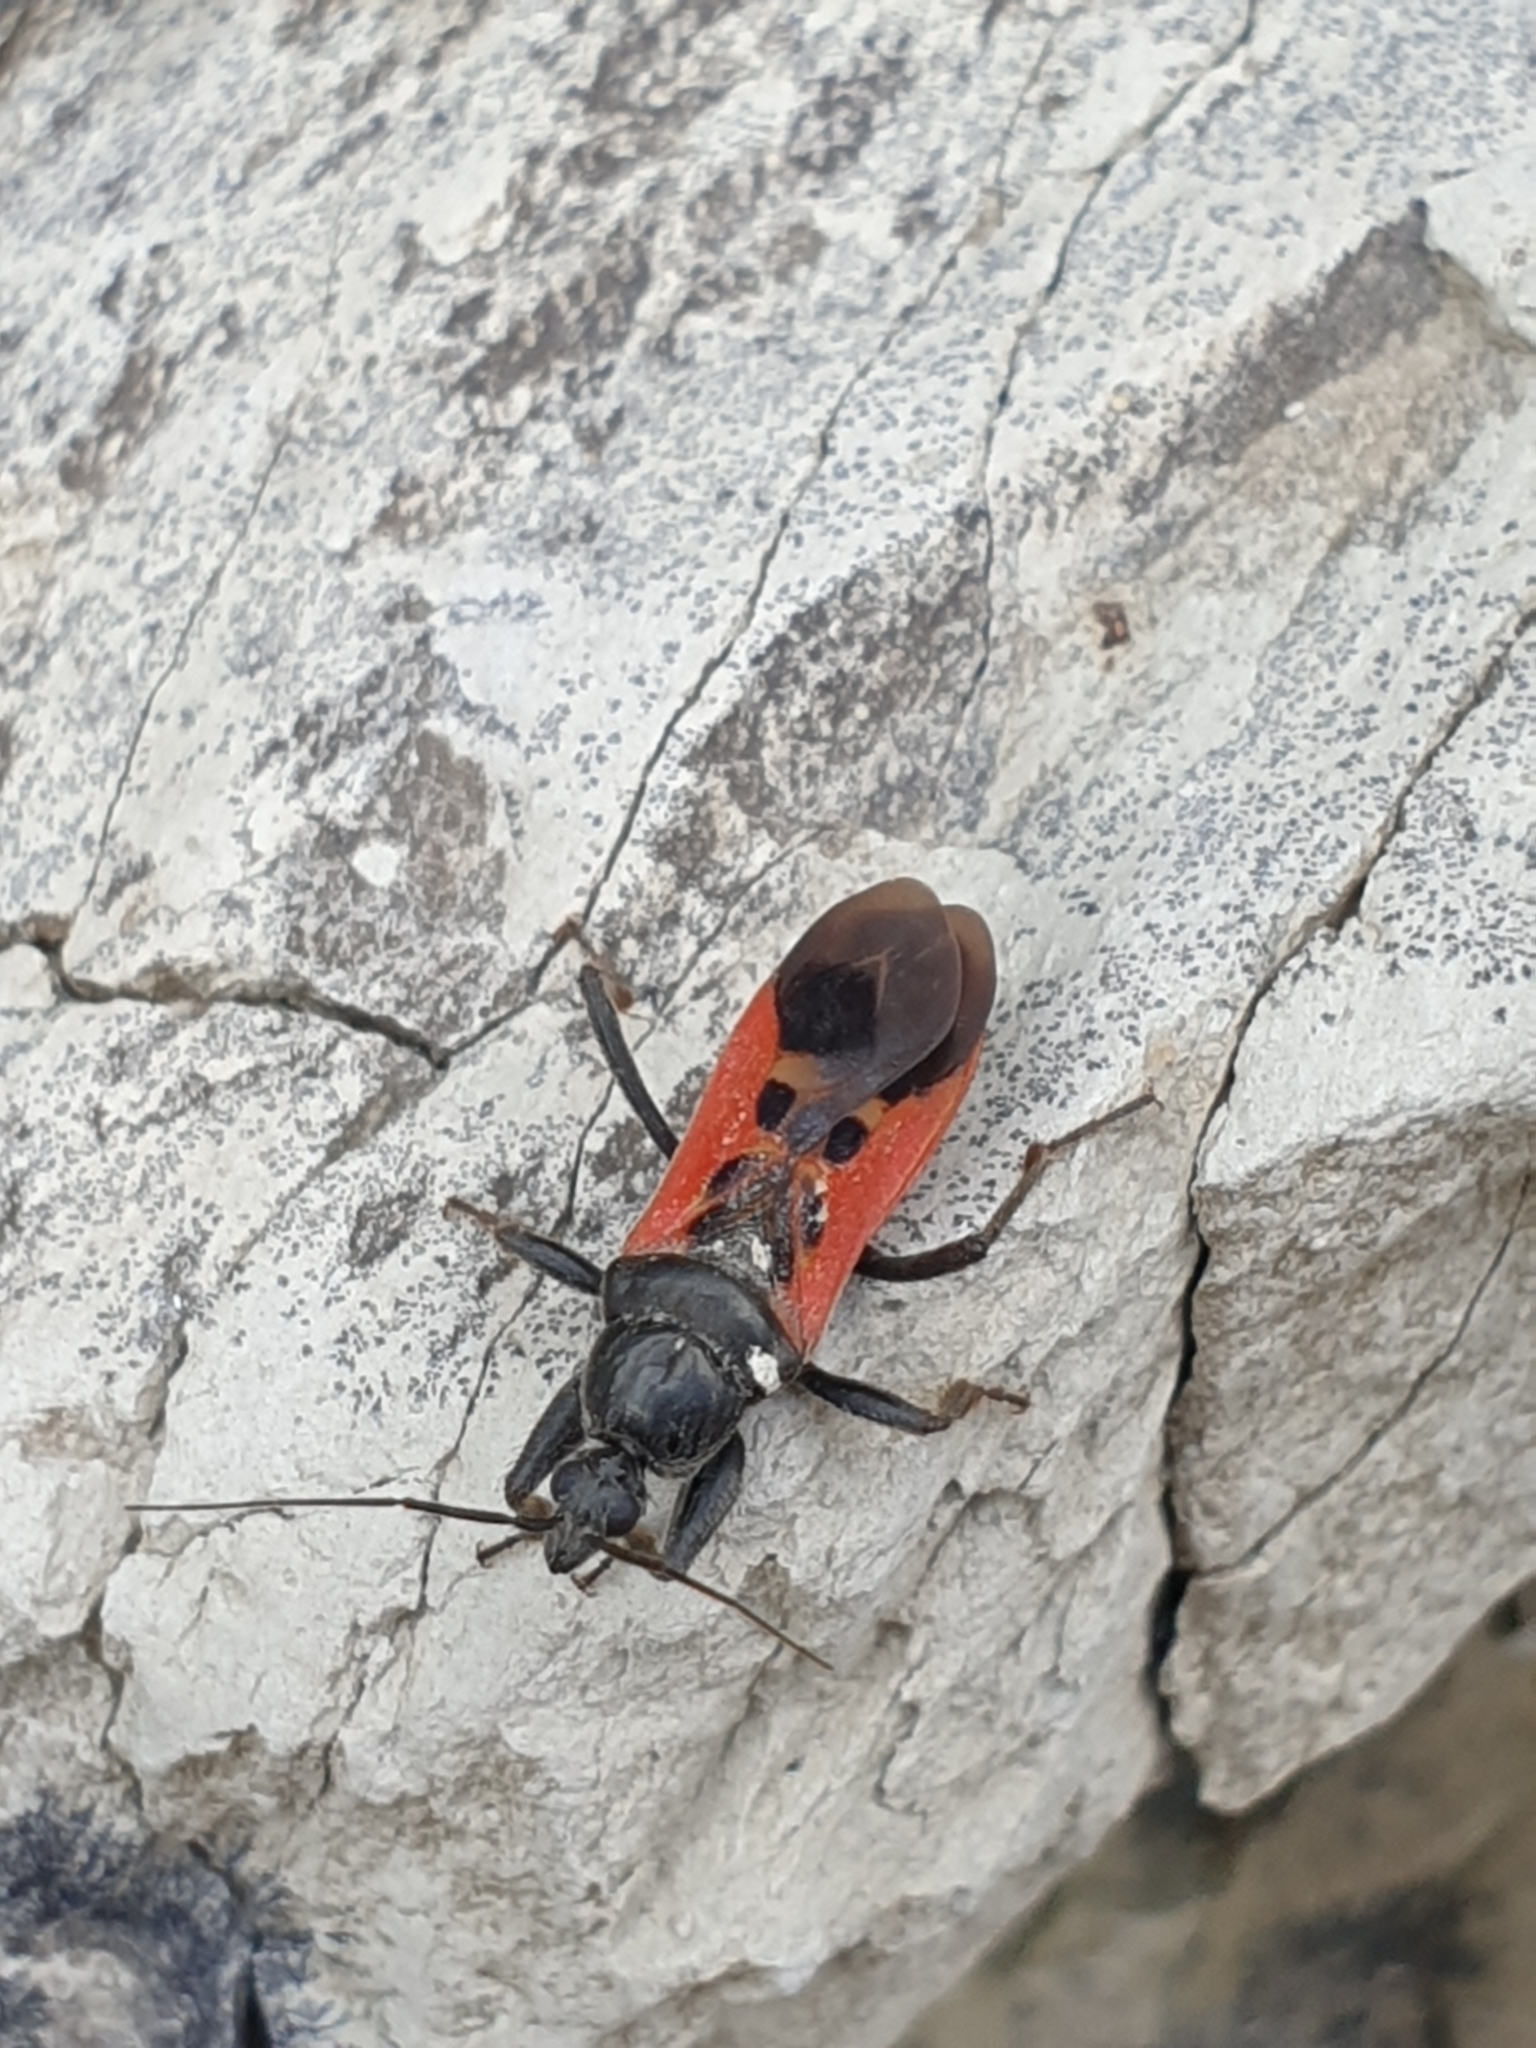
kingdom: Animalia
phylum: Arthropoda
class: Insecta
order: Hemiptera
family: Reduviidae
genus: Peirates
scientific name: Peirates hybridus
